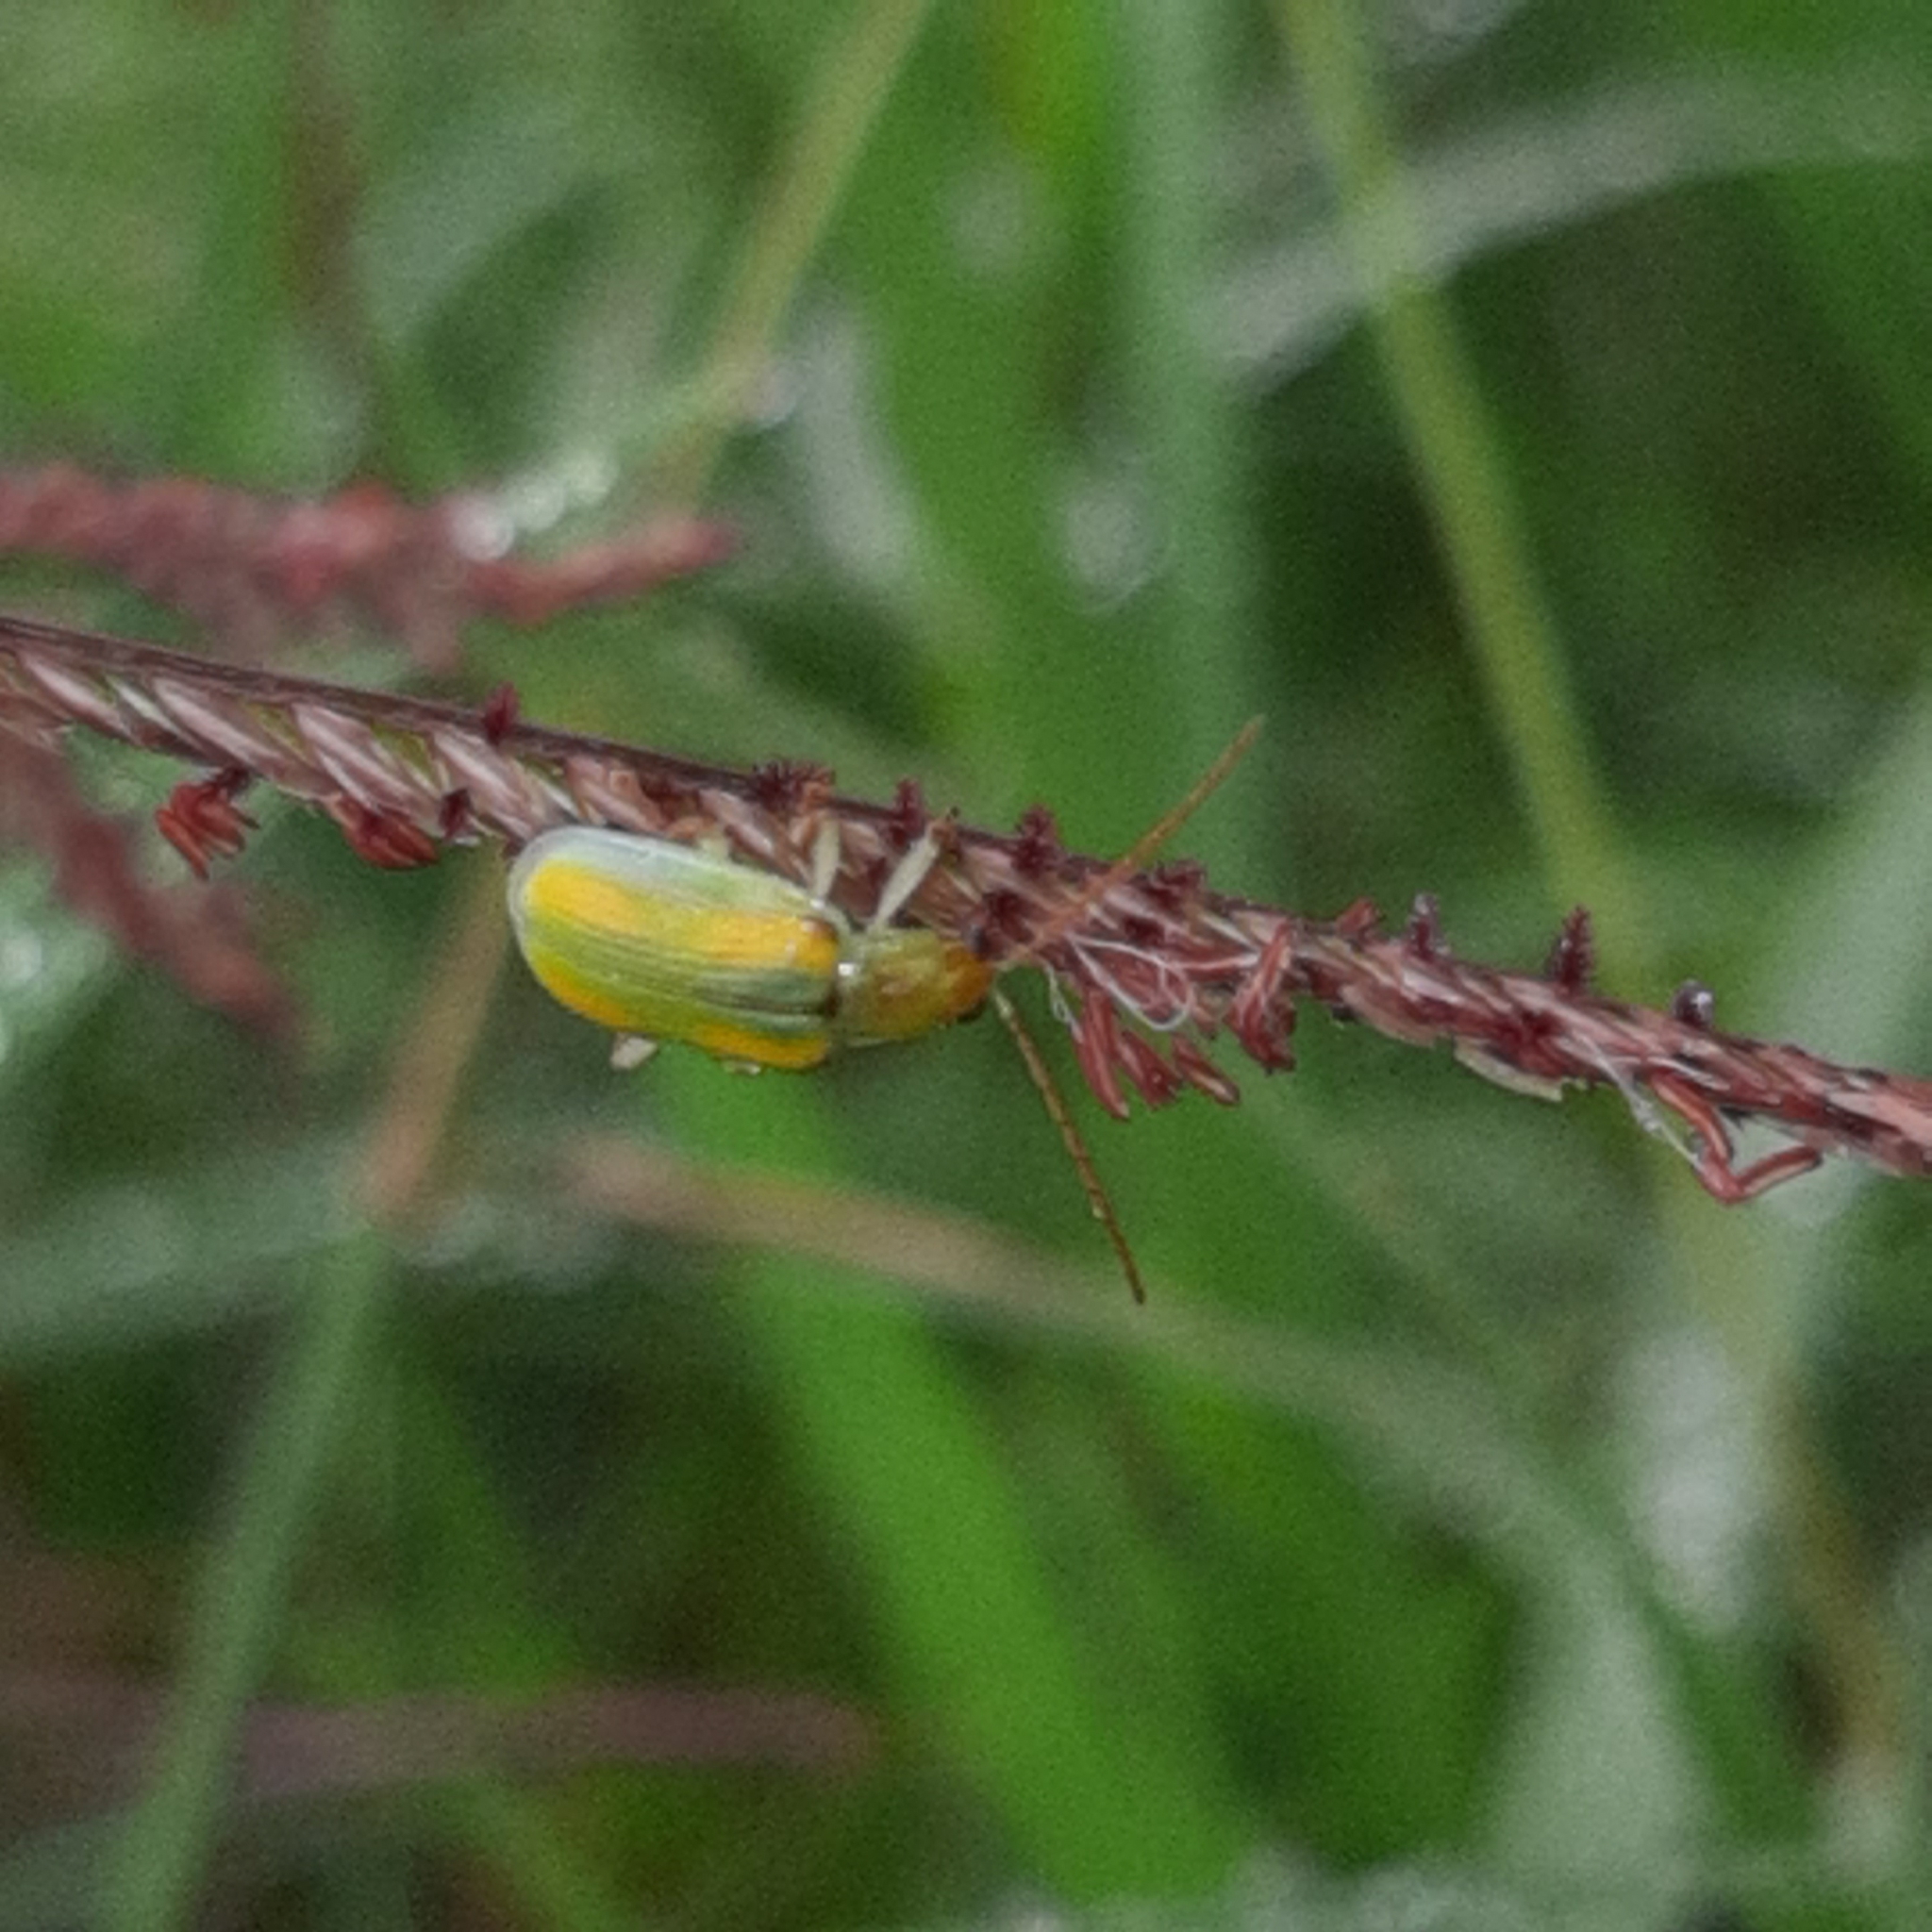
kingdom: Animalia
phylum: Arthropoda
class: Insecta
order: Coleoptera
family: Chrysomelidae
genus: Diabrotica
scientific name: Diabrotica porracea
